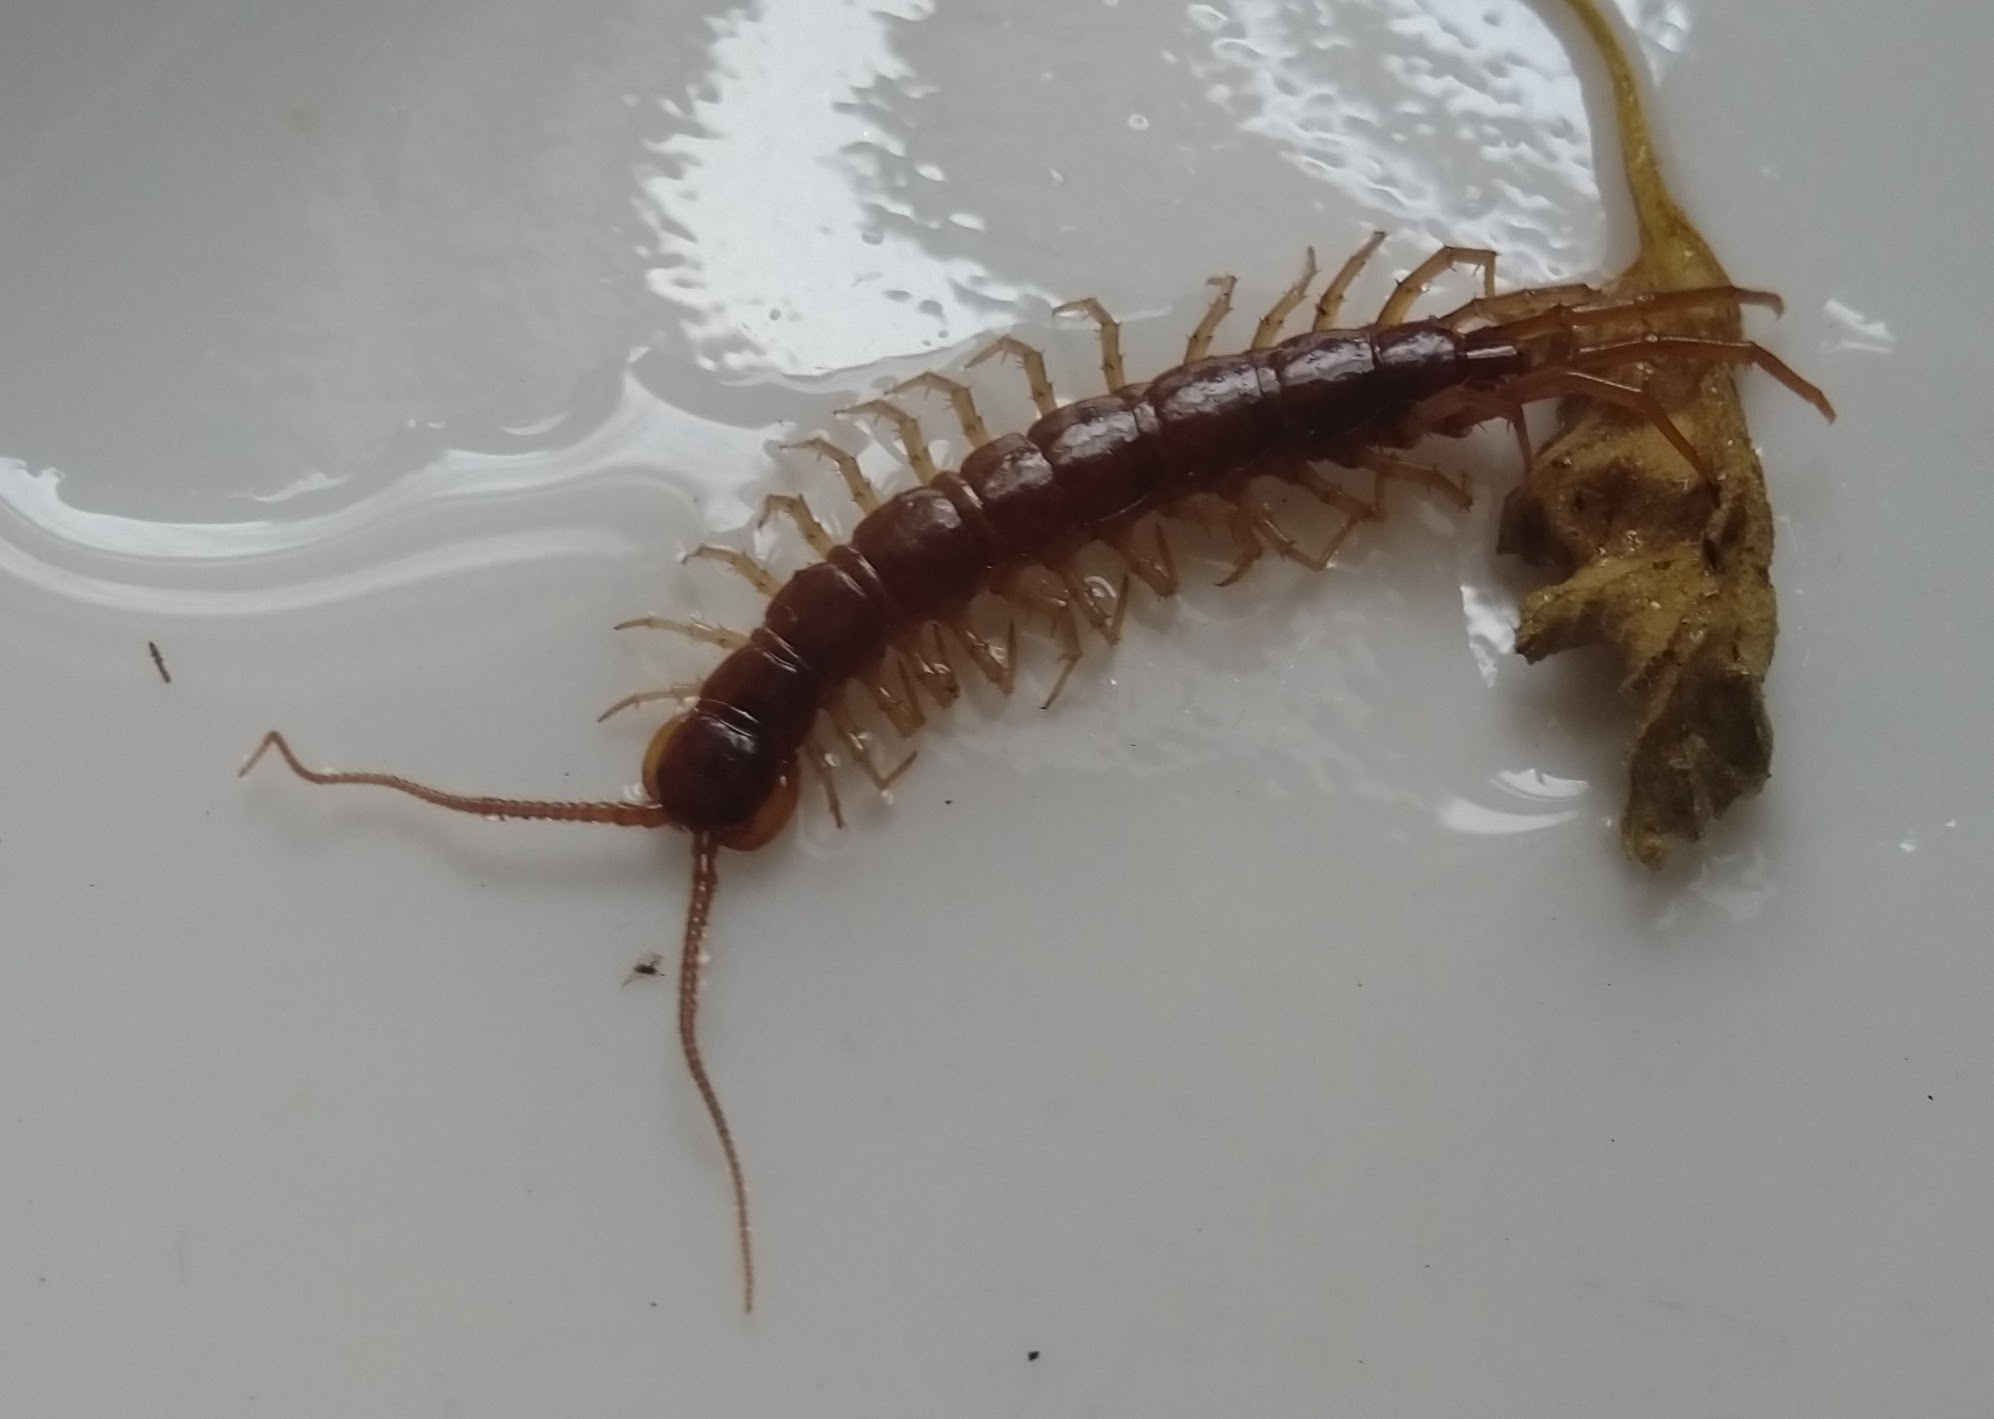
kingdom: Animalia
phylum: Arthropoda
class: Chilopoda
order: Lithobiomorpha
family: Lithobiidae
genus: Lithobius
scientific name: Lithobius forficatus
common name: Centipede
